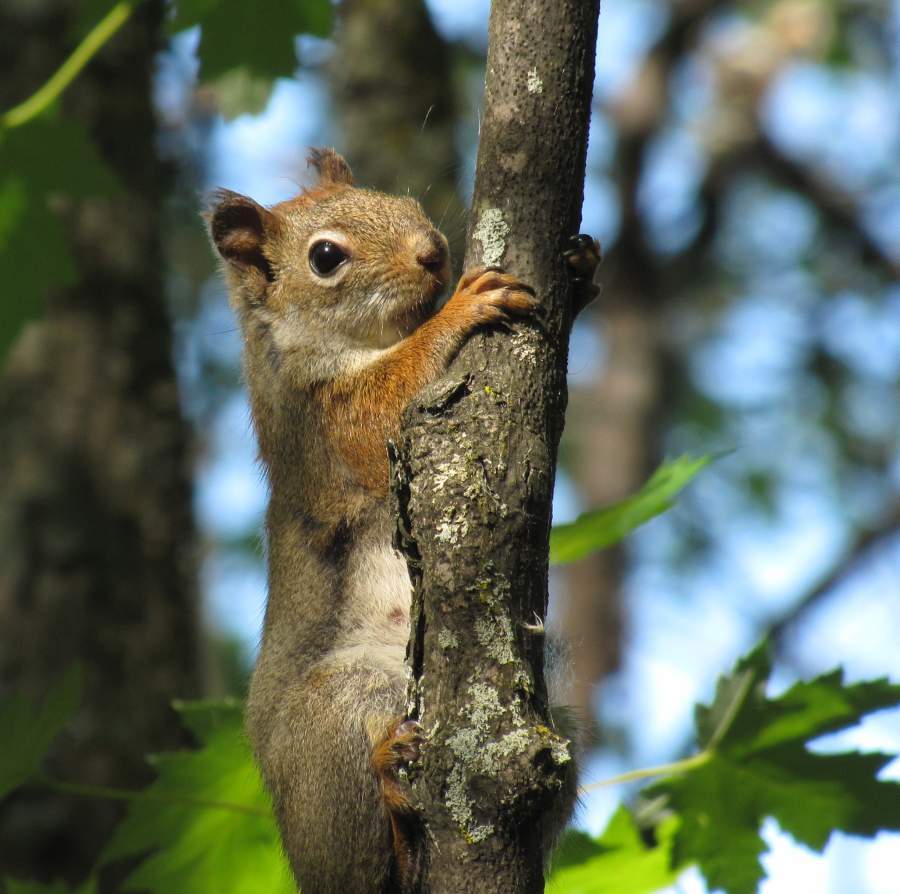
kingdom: Animalia
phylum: Chordata
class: Mammalia
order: Rodentia
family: Sciuridae
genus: Tamiasciurus
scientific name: Tamiasciurus hudsonicus
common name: Red squirrel
